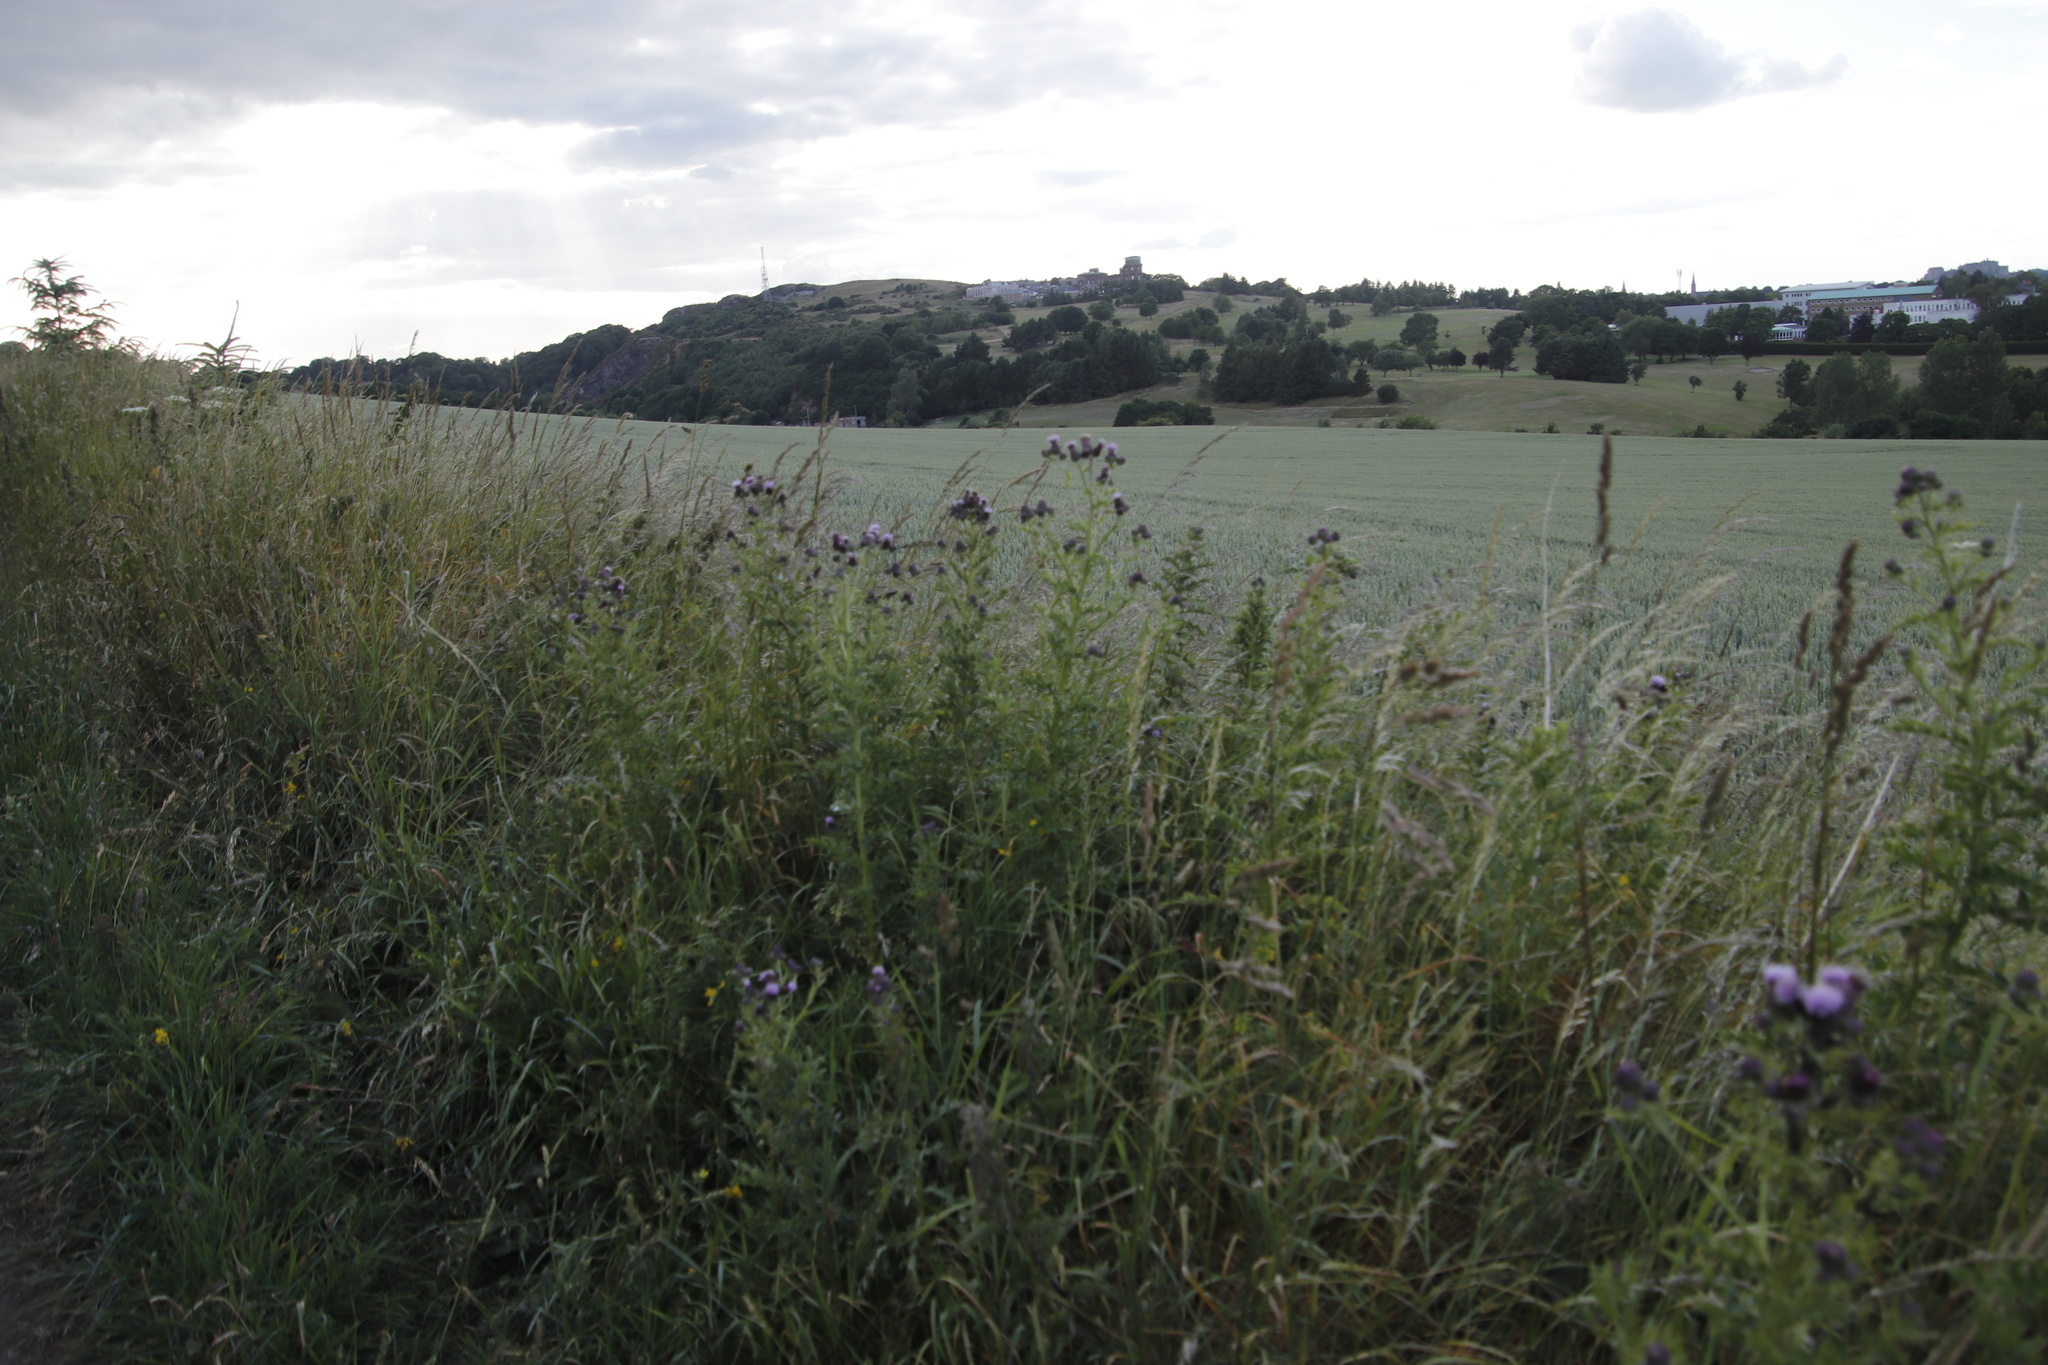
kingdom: Plantae
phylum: Tracheophyta
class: Magnoliopsida
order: Asterales
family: Asteraceae
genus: Cirsium
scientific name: Cirsium arvense
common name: Creeping thistle
